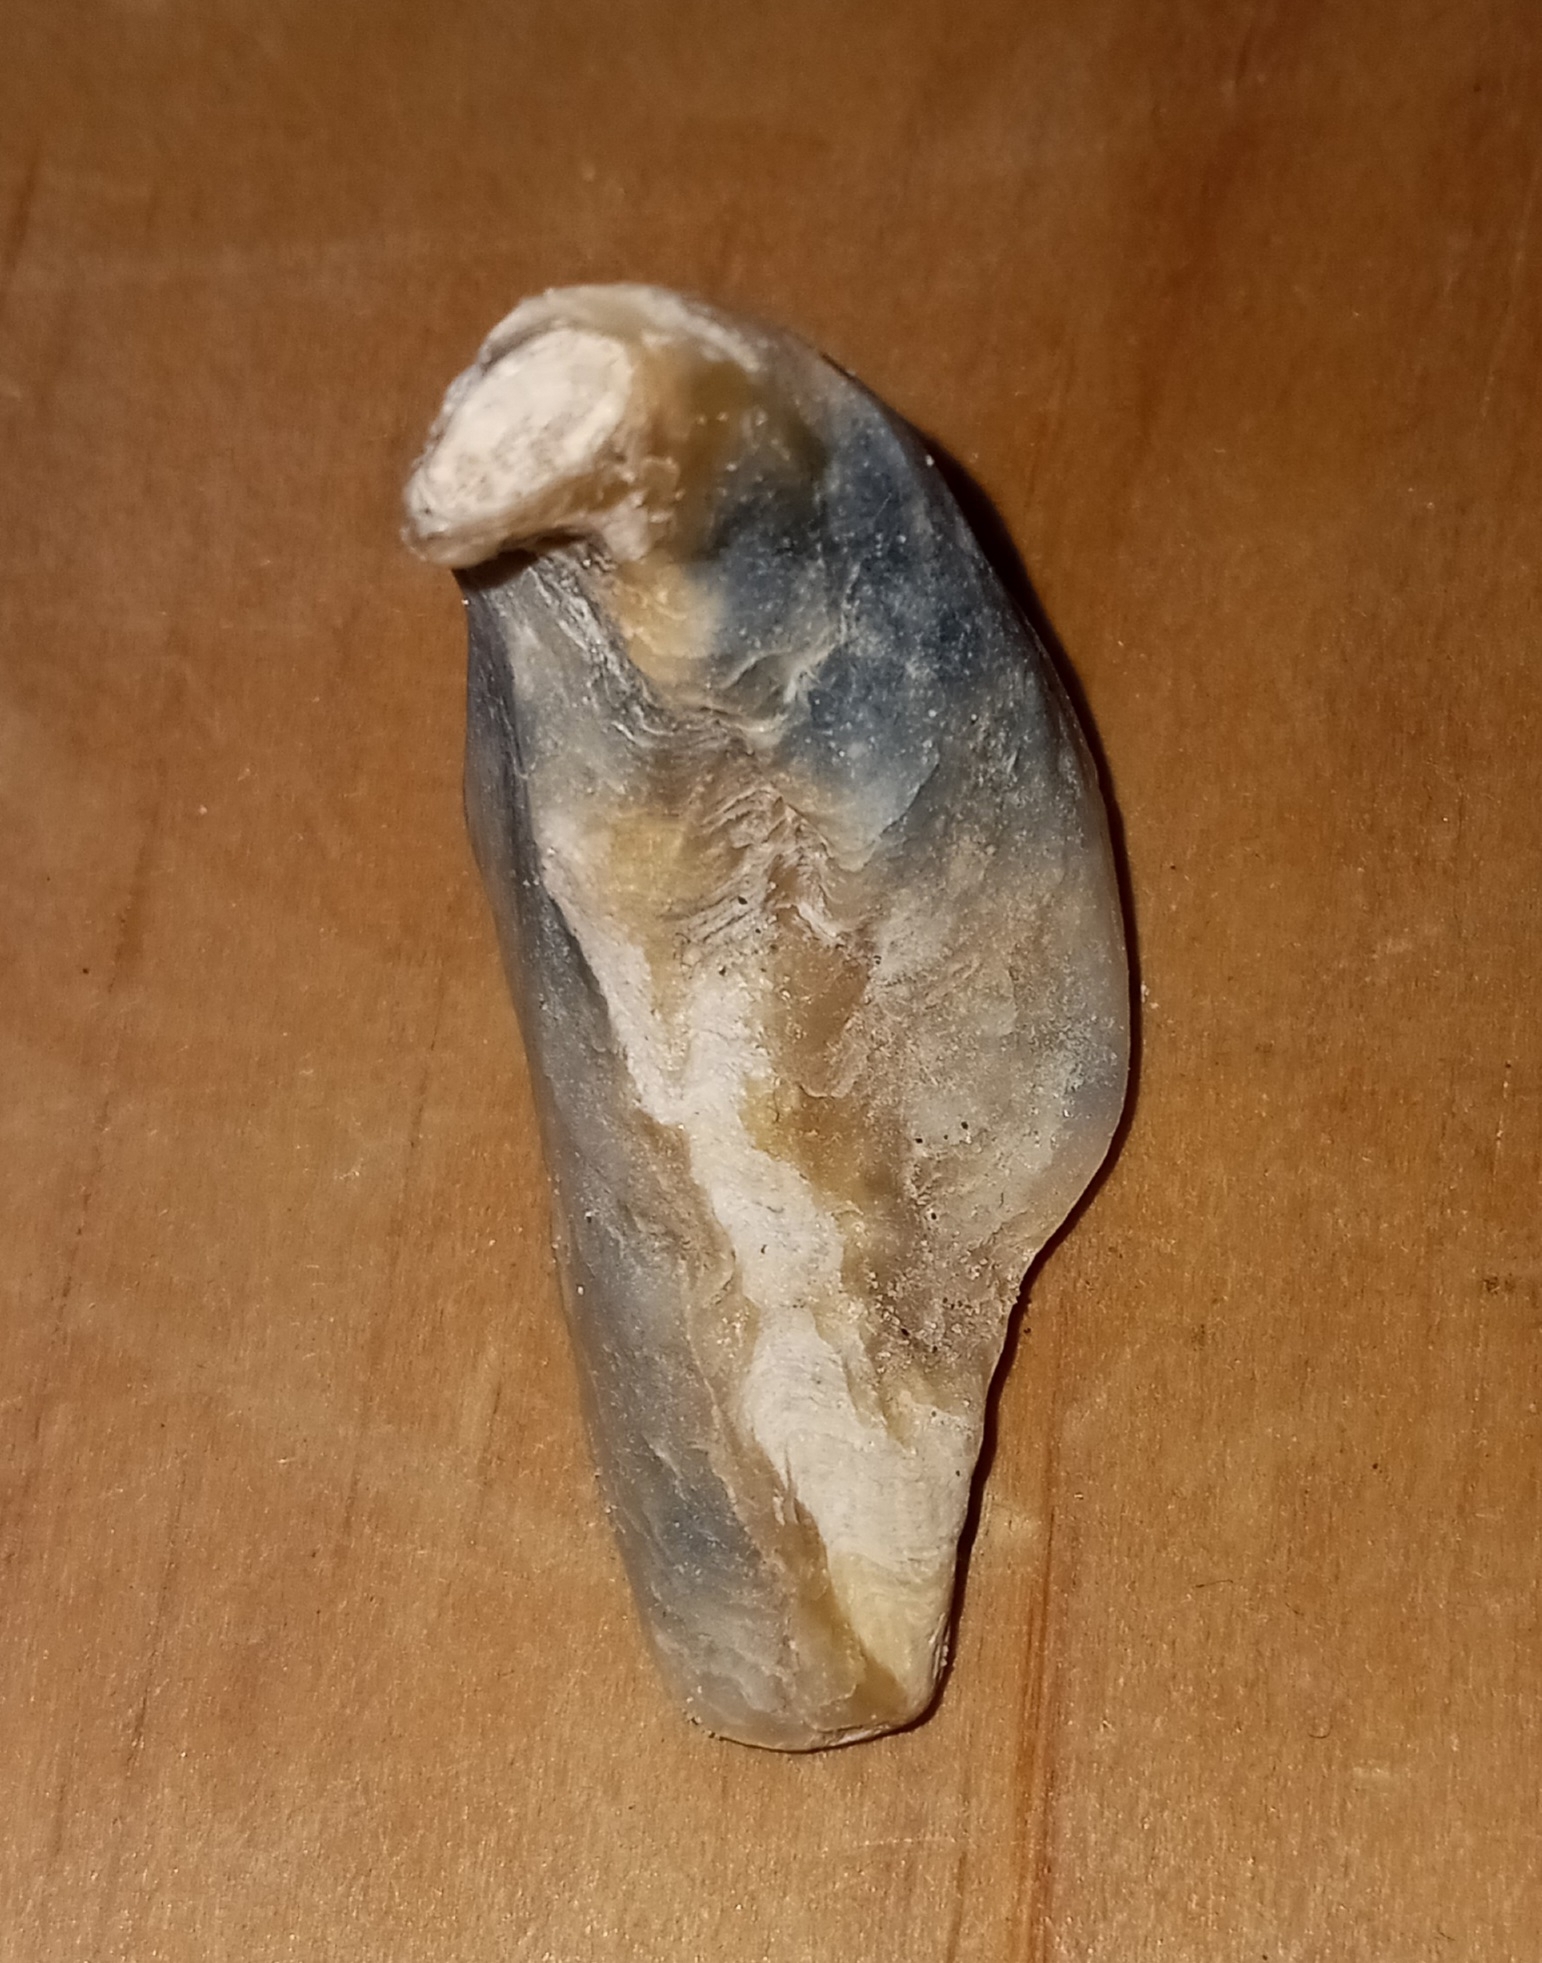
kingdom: Animalia
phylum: Mollusca
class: Bivalvia
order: Ostreida
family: Ostreidae
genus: Crassostrea
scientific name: Crassostrea virginica
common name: American oyster
